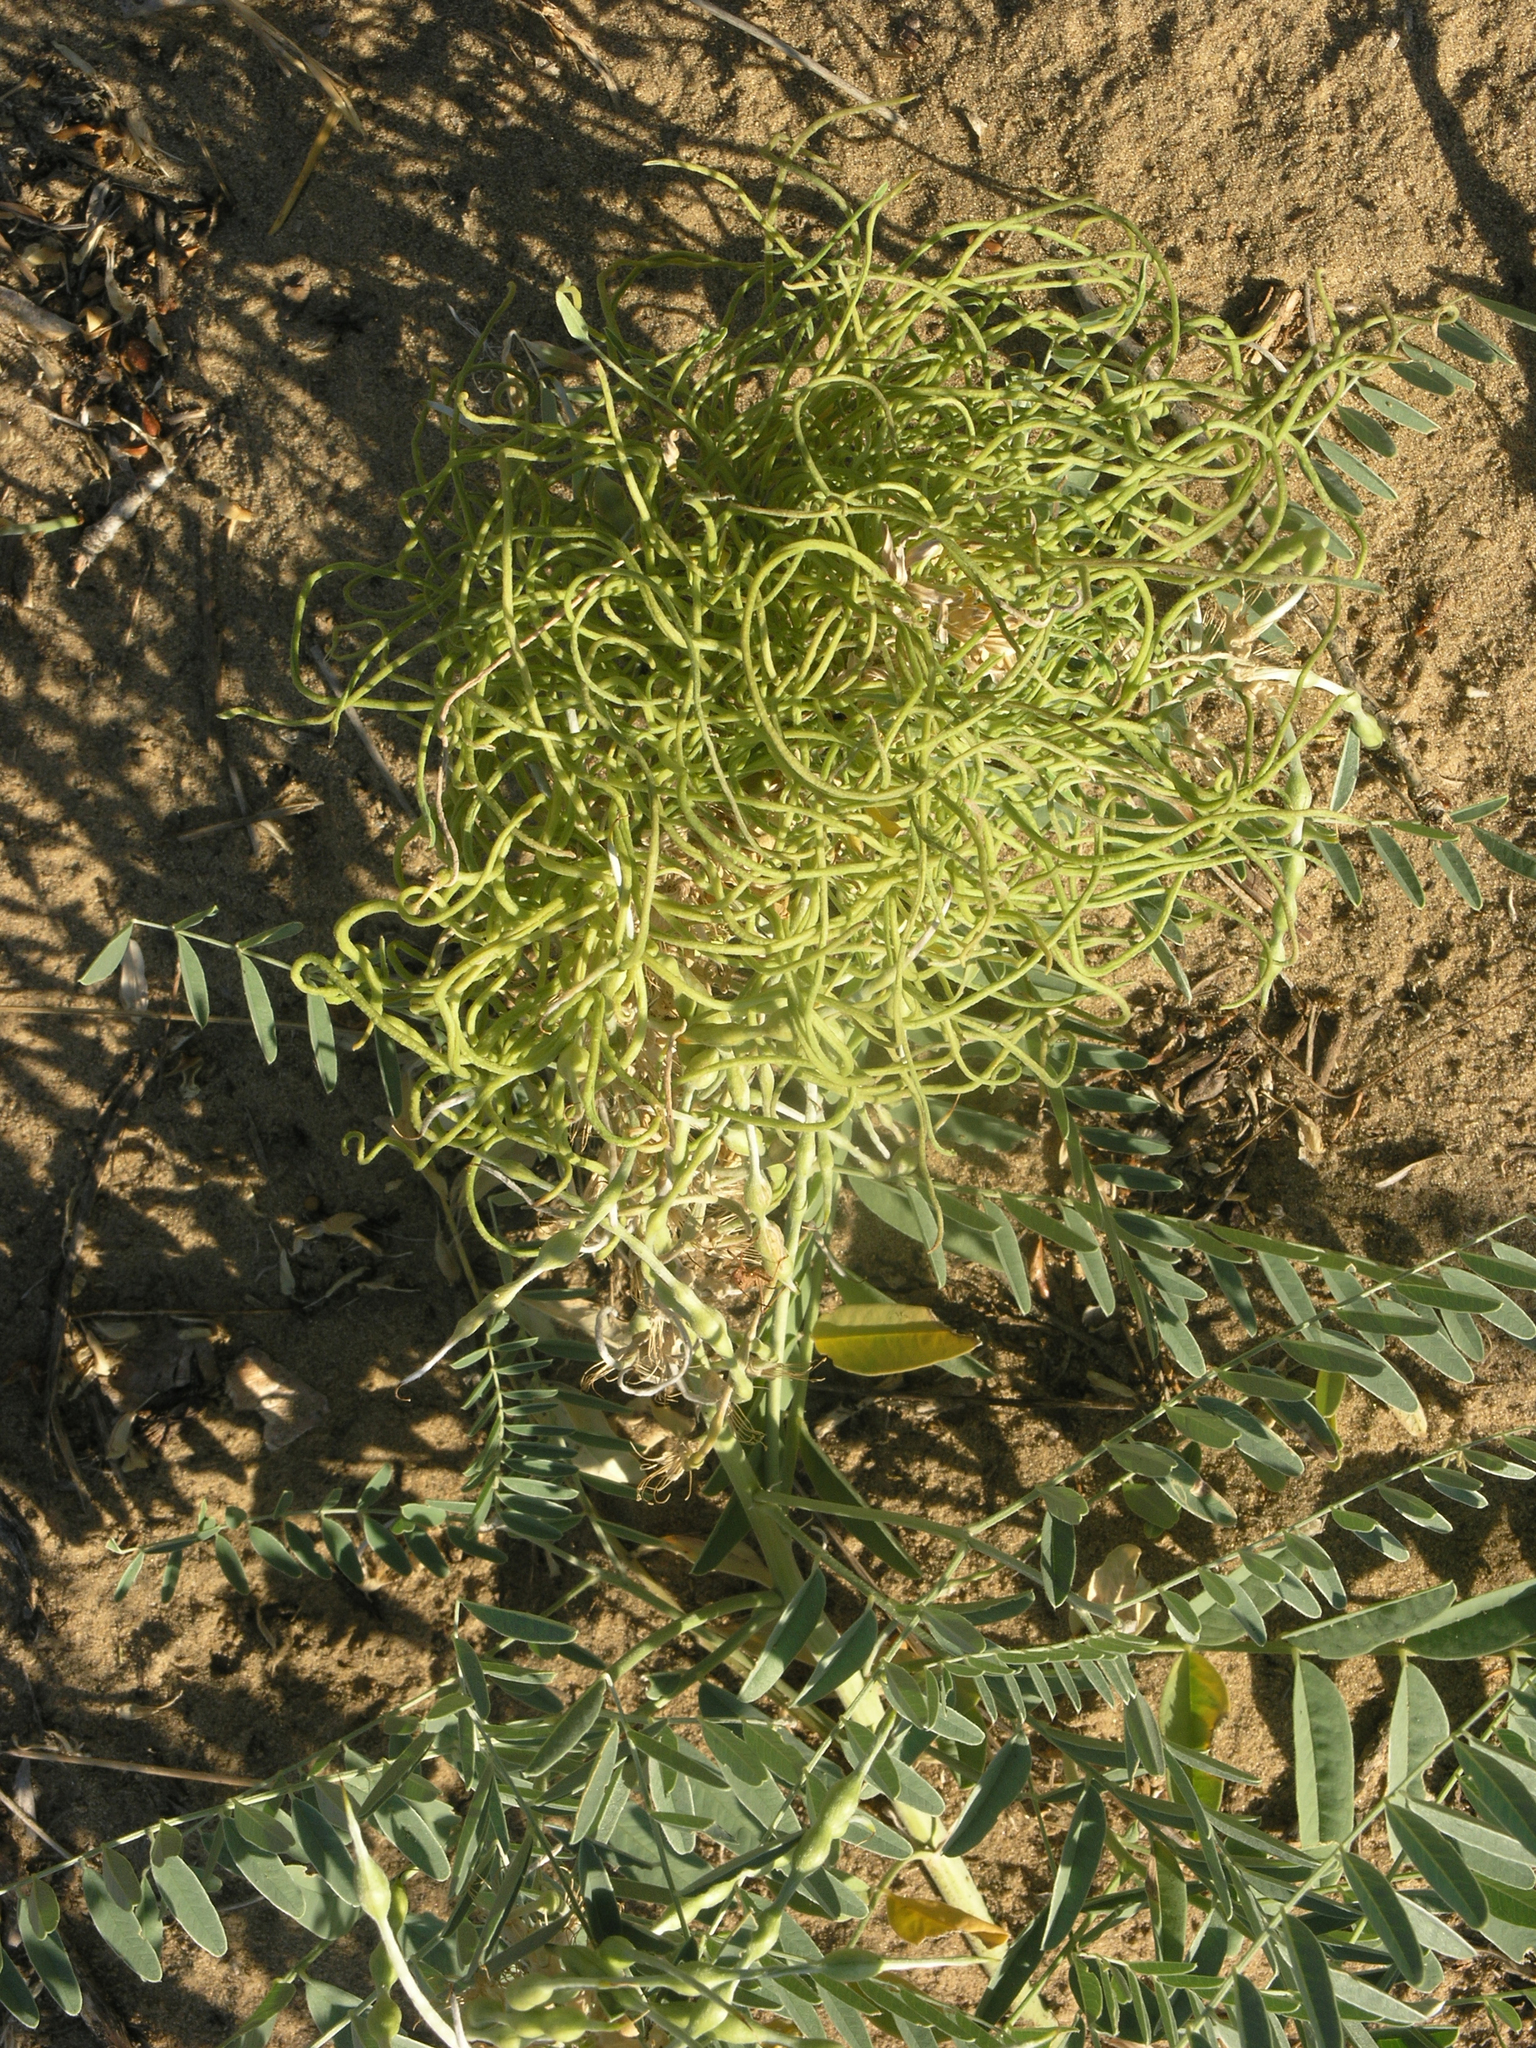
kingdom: Plantae
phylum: Tracheophyta
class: Magnoliopsida
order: Fabales
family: Fabaceae
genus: Sophora
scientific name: Sophora alopecuroides
